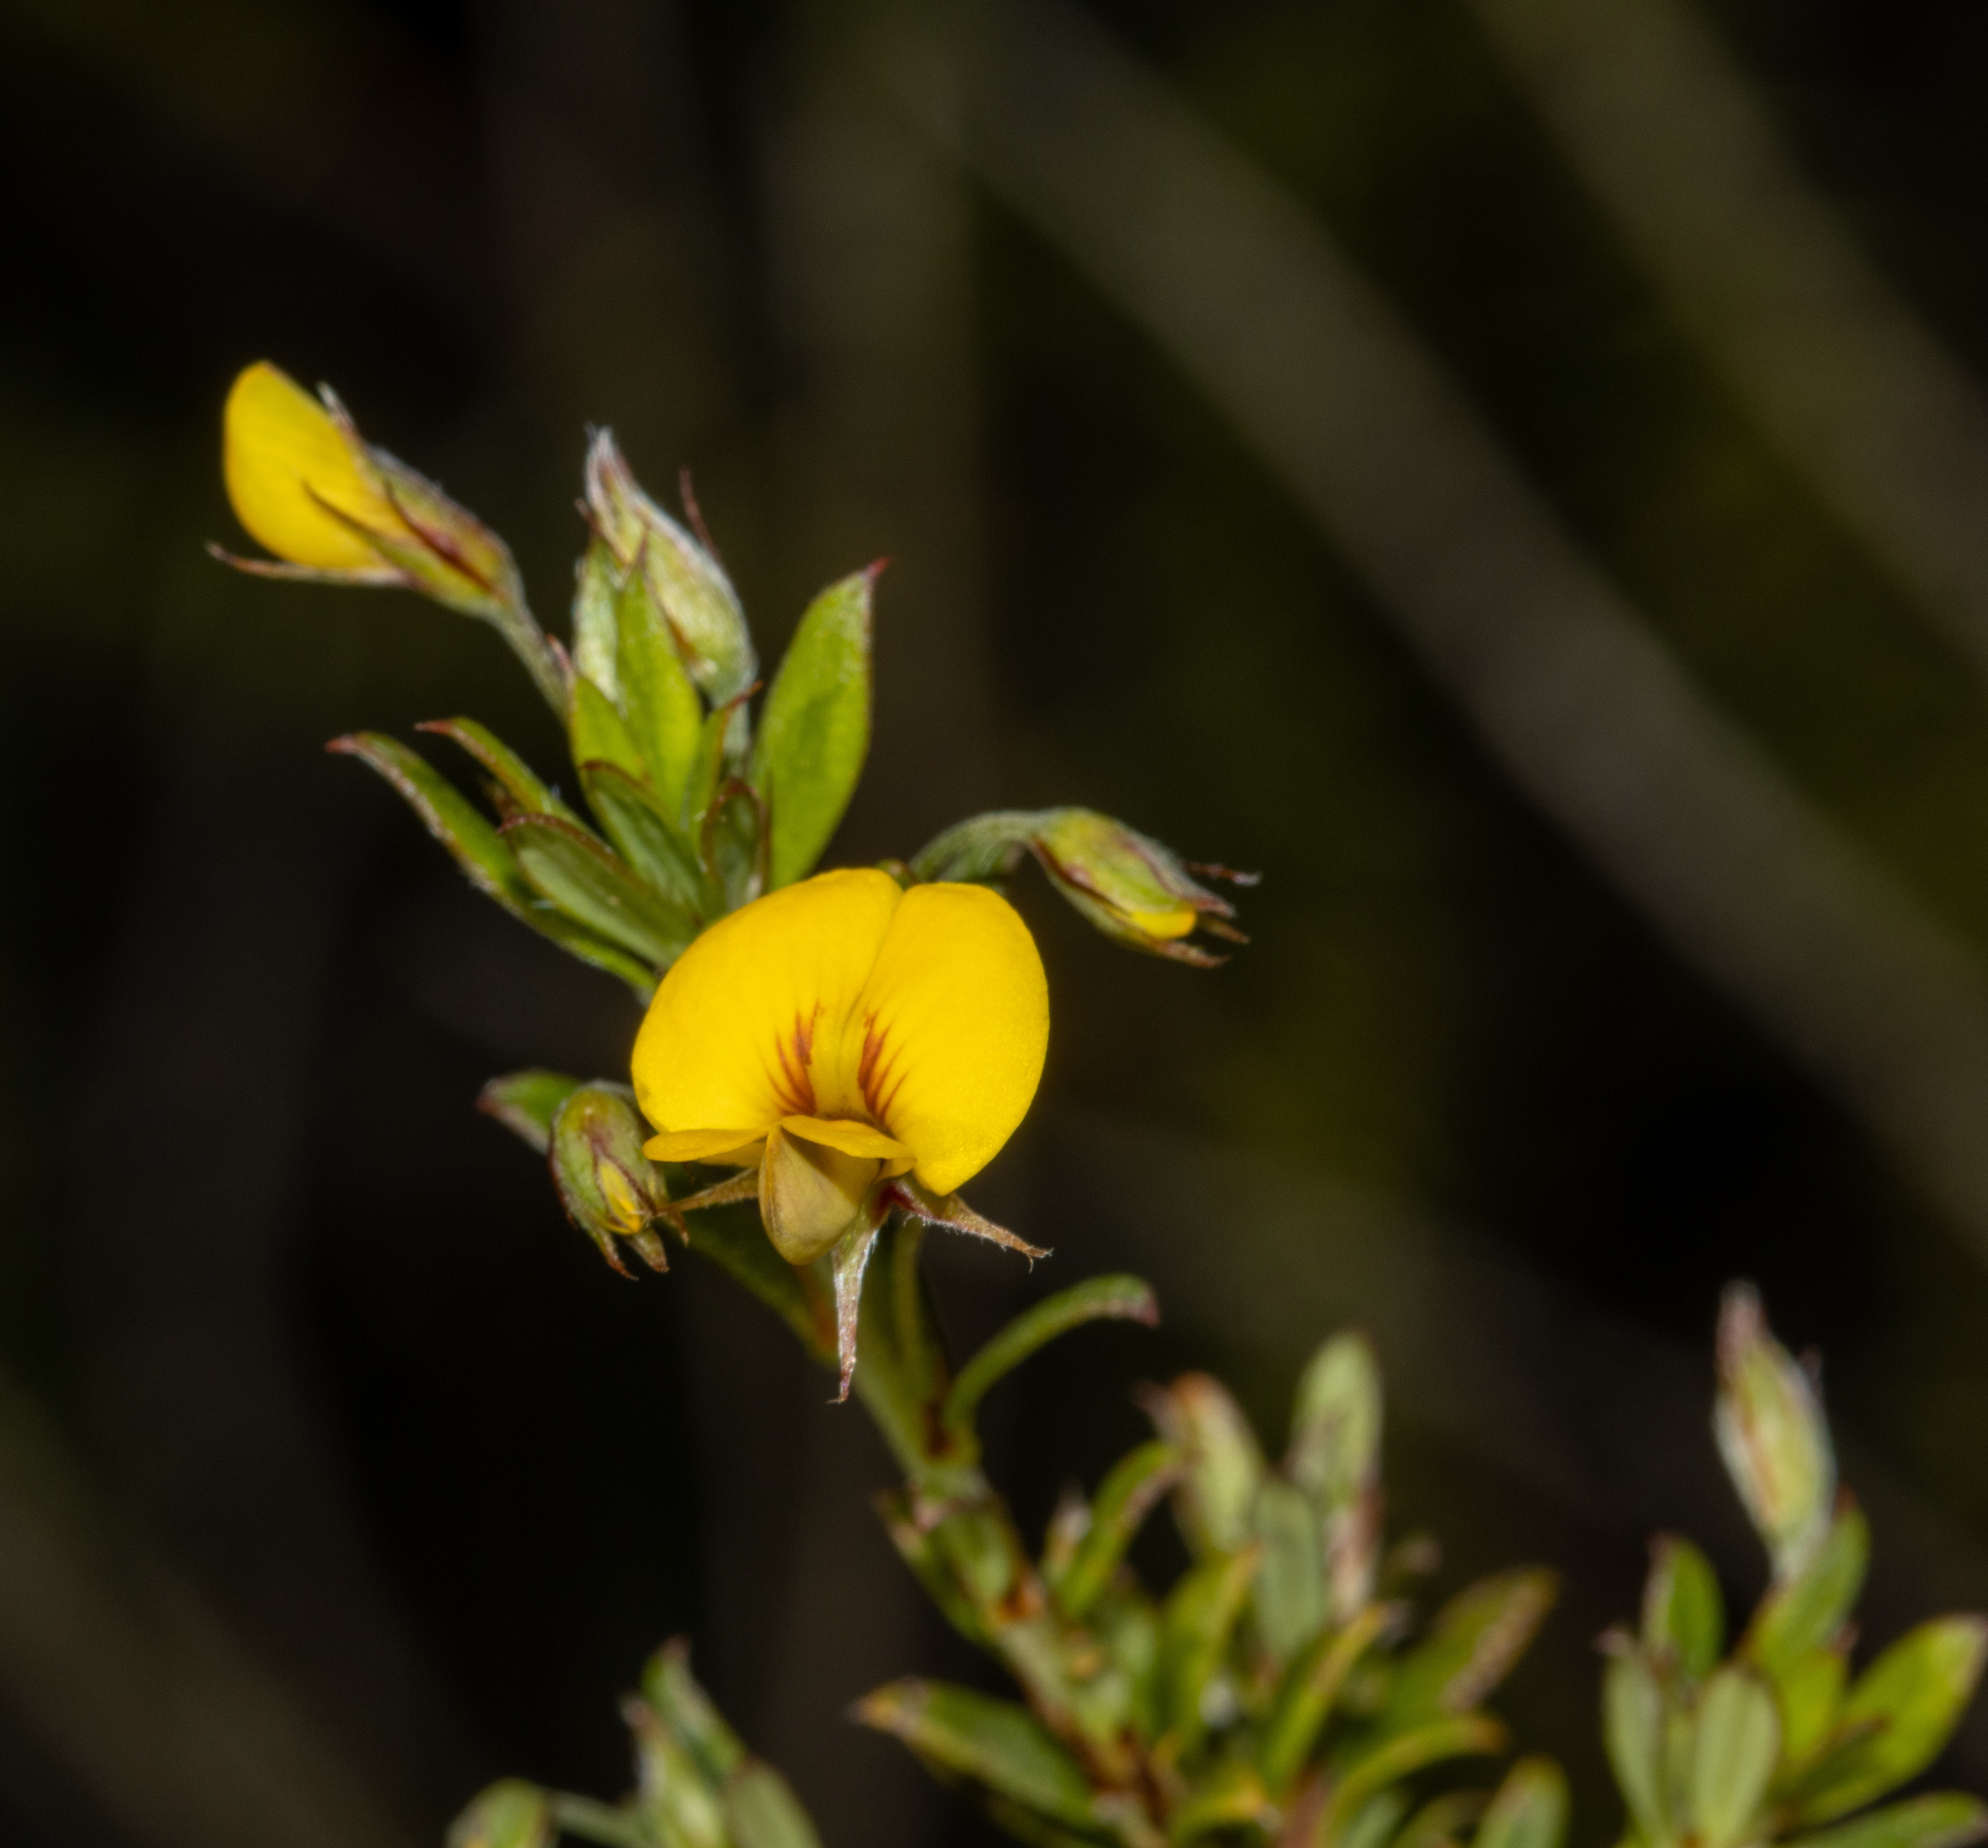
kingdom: Plantae
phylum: Tracheophyta
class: Magnoliopsida
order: Fabales
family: Fabaceae
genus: Pultenaea
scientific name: Pultenaea pedunculata
